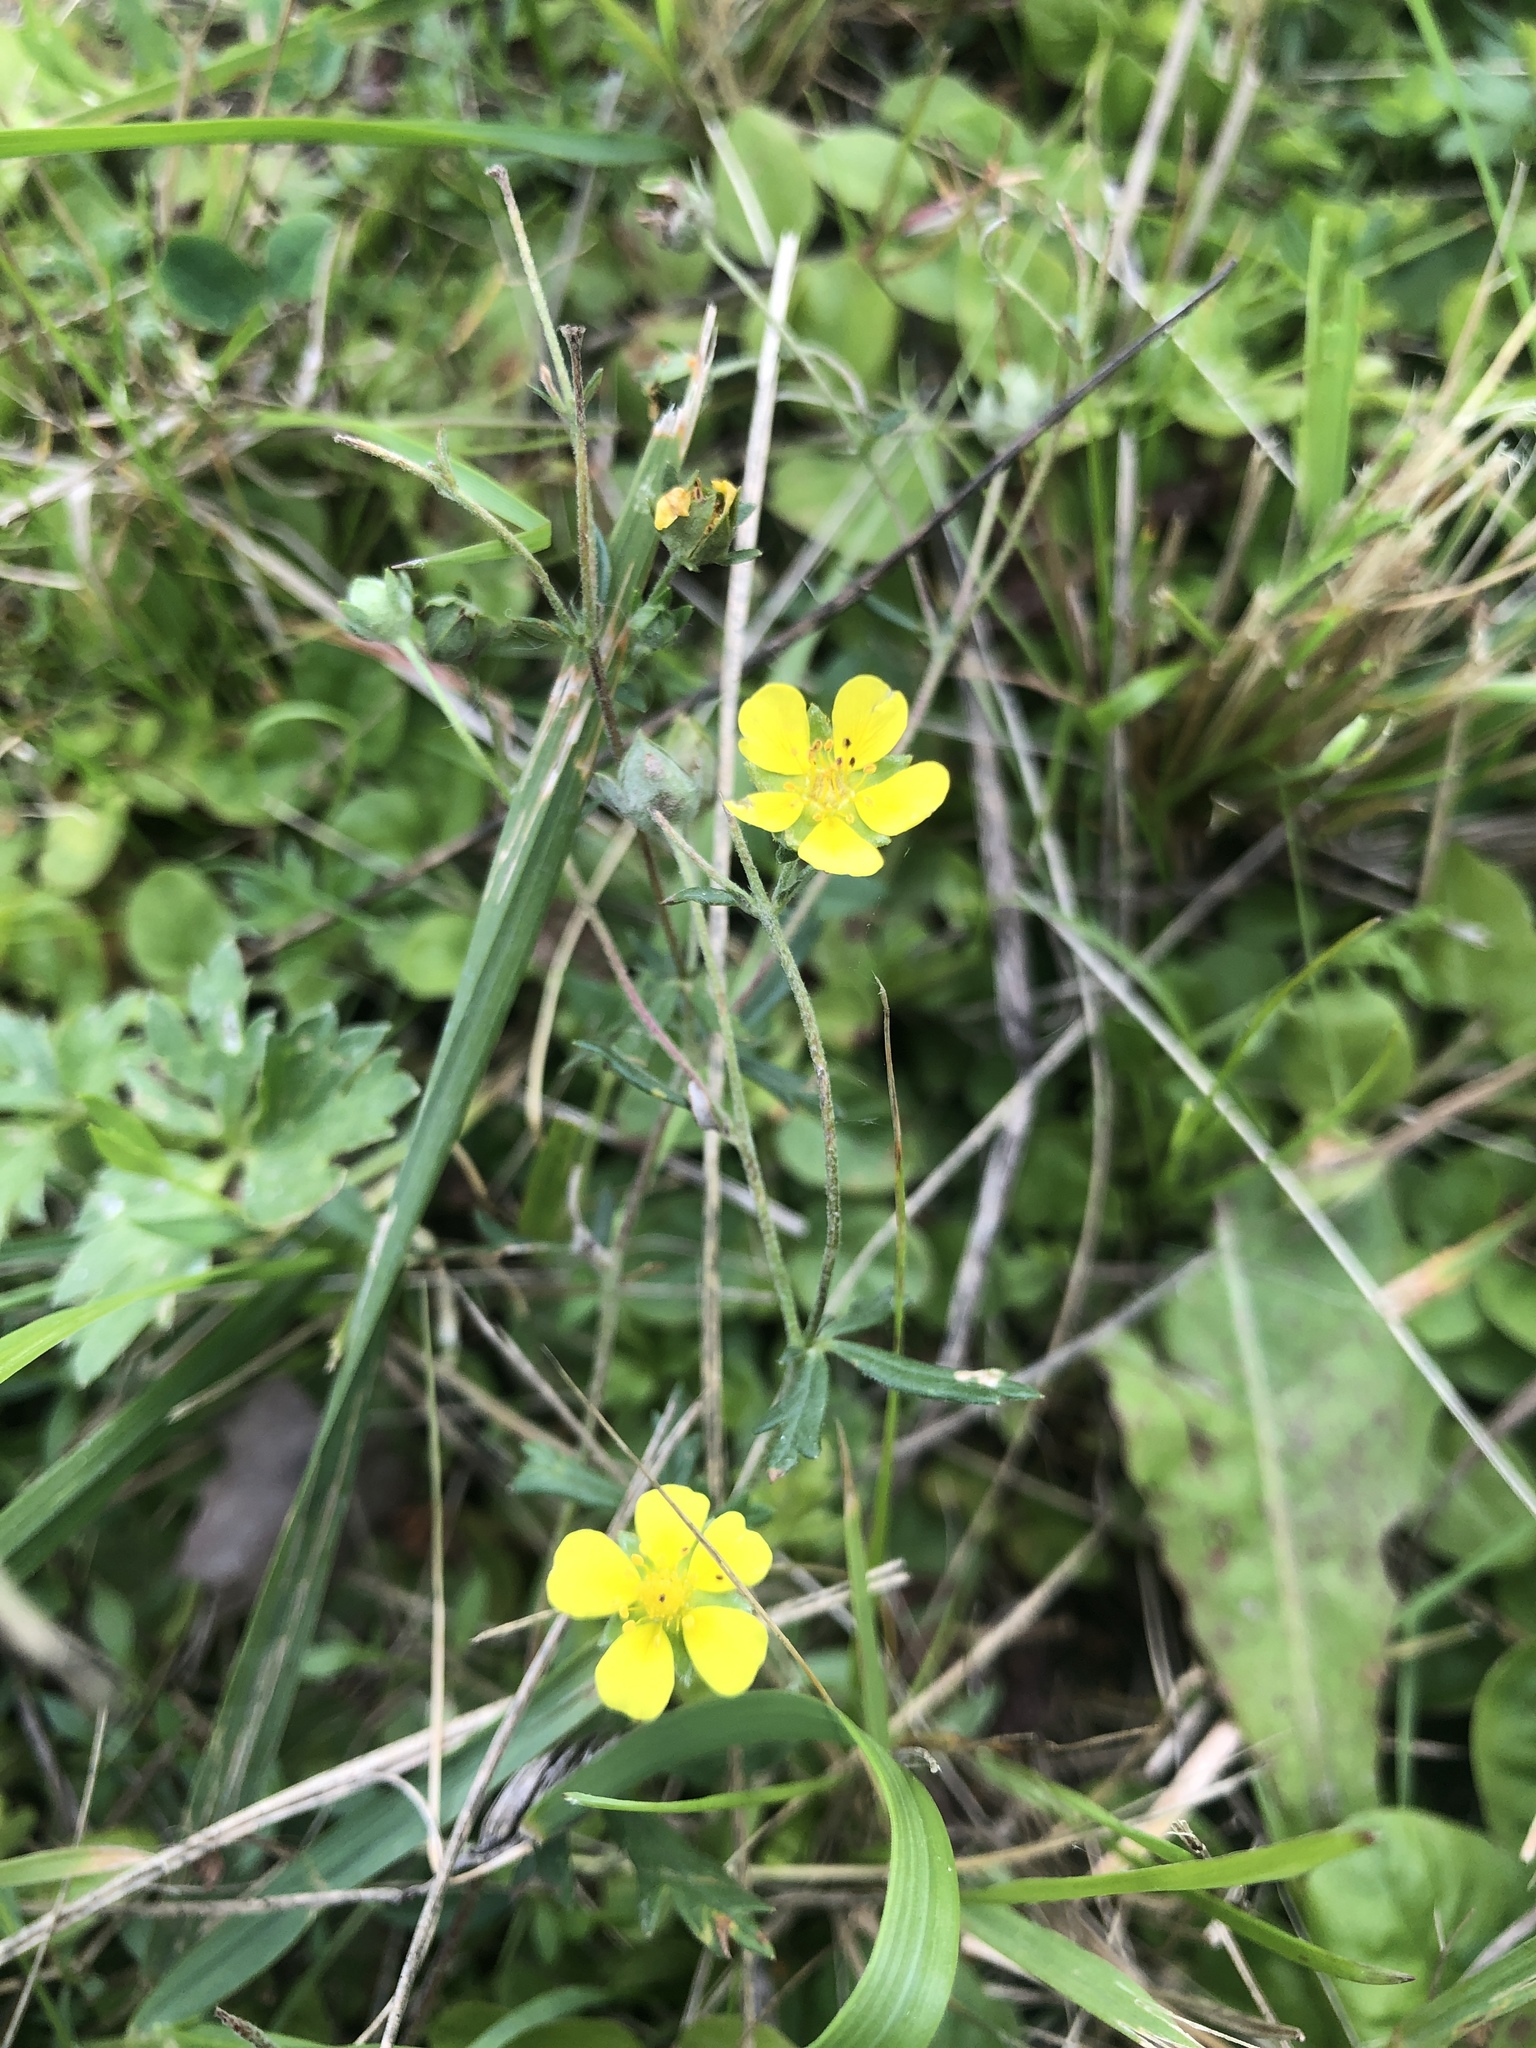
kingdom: Plantae
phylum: Tracheophyta
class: Magnoliopsida
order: Rosales
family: Rosaceae
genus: Potentilla
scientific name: Potentilla argentea
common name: Hoary cinquefoil
